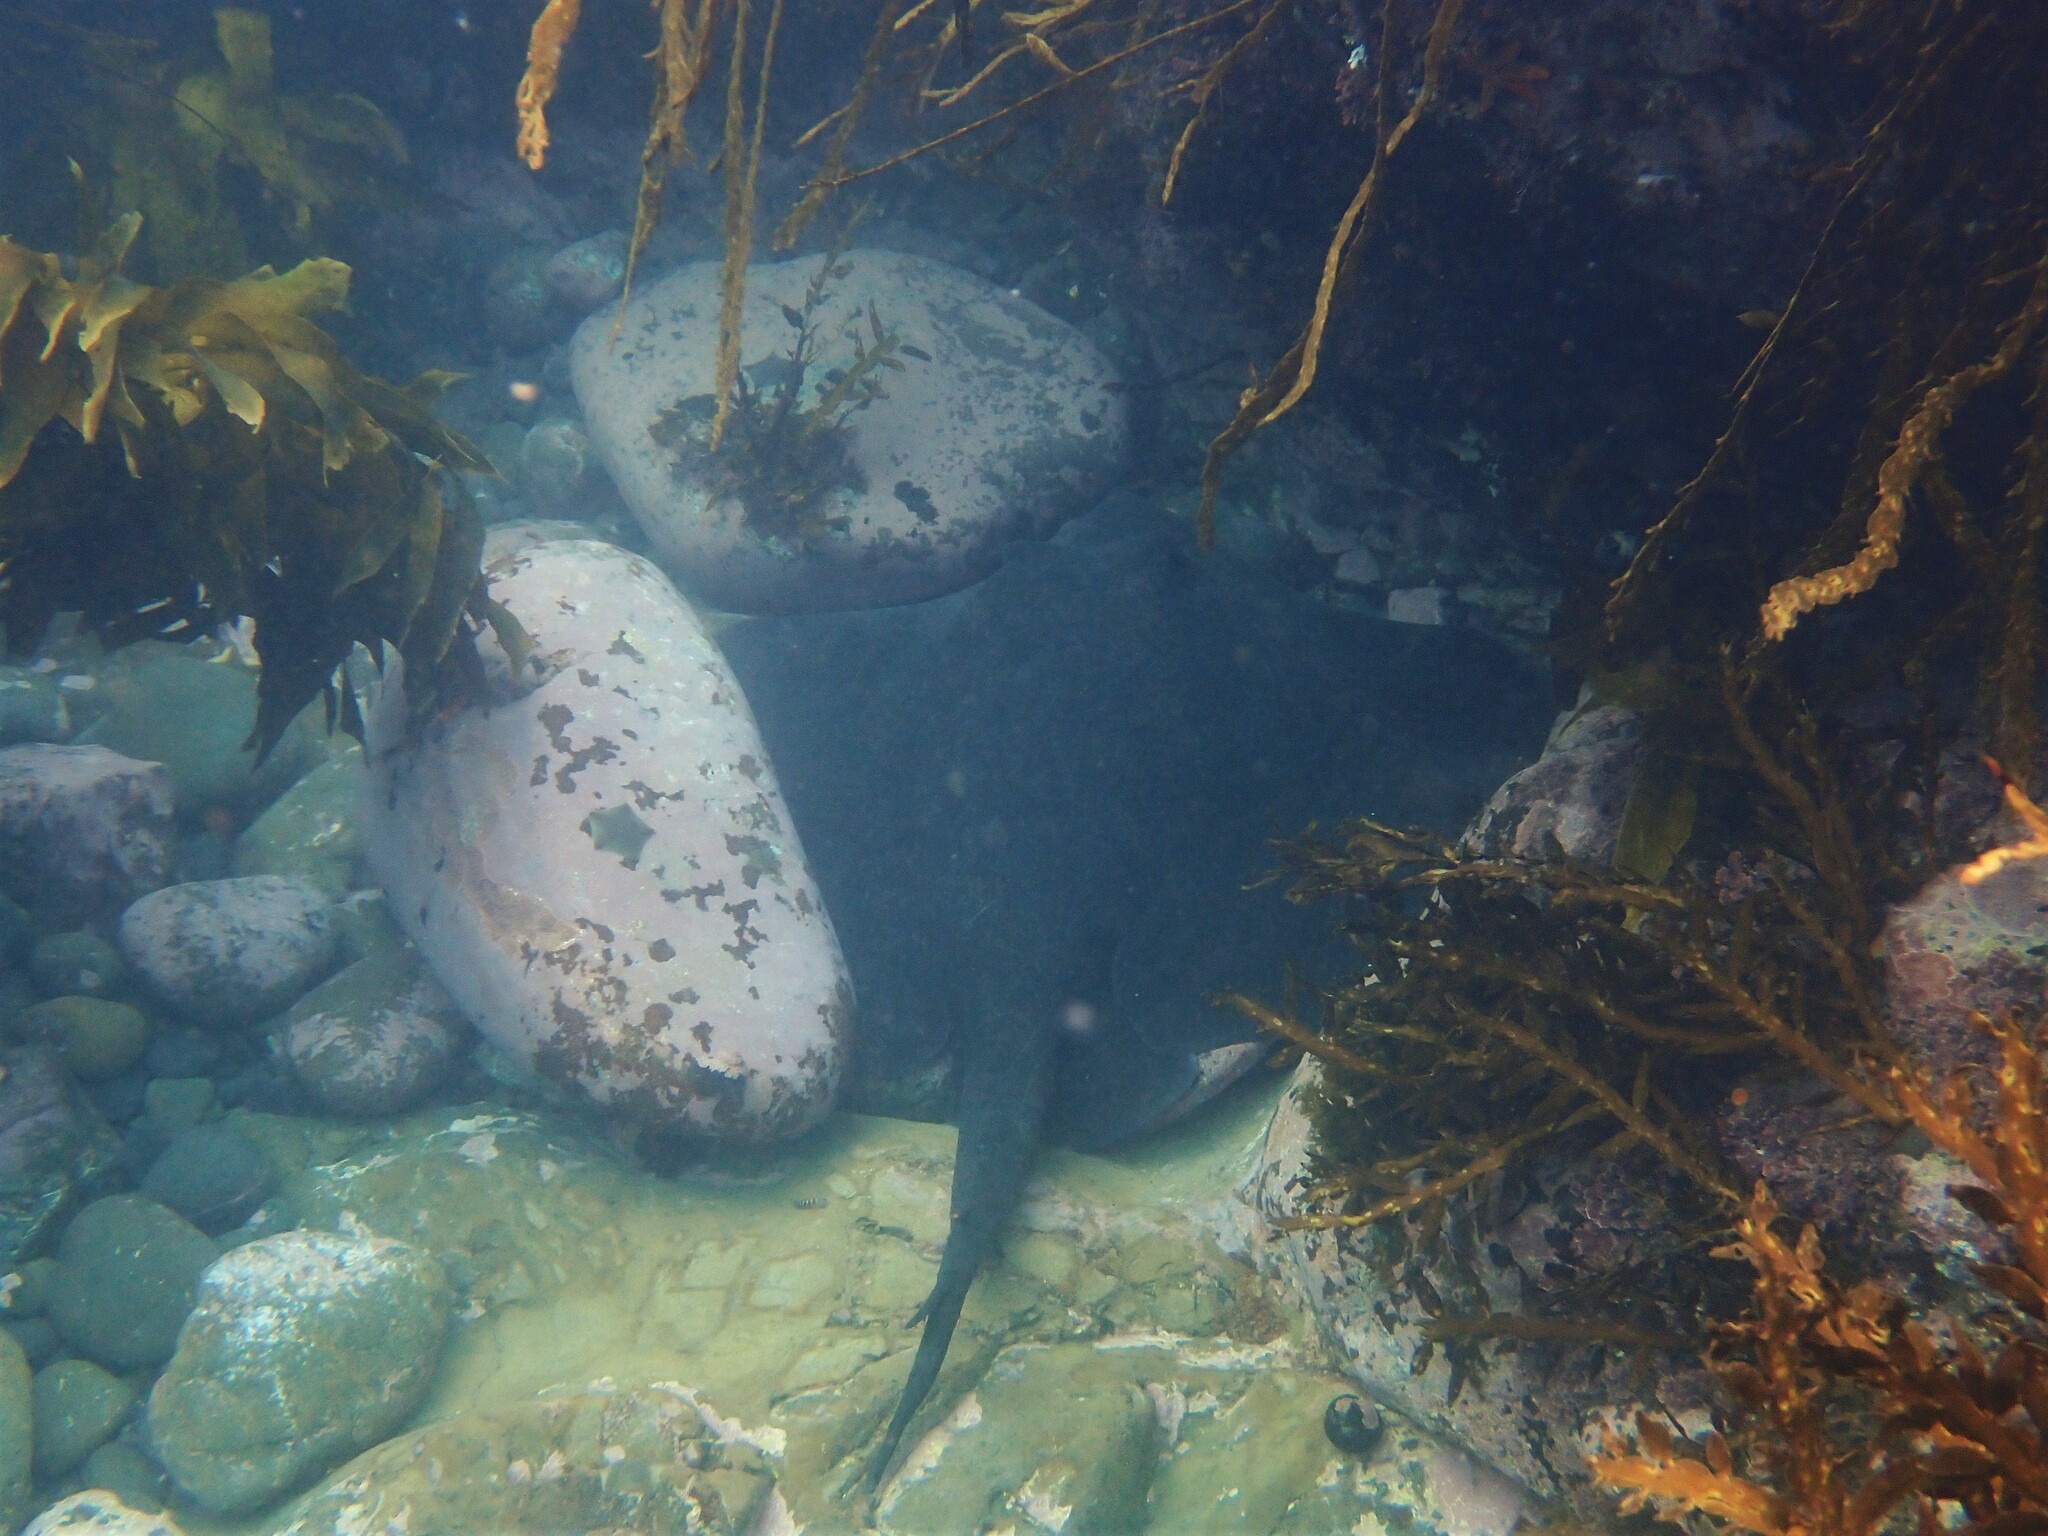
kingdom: Animalia
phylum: Chordata
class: Elasmobranchii
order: Myliobatiformes
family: Dasyatidae
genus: Bathytoshia
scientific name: Bathytoshia brevicaudata
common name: Short-tail stingray
